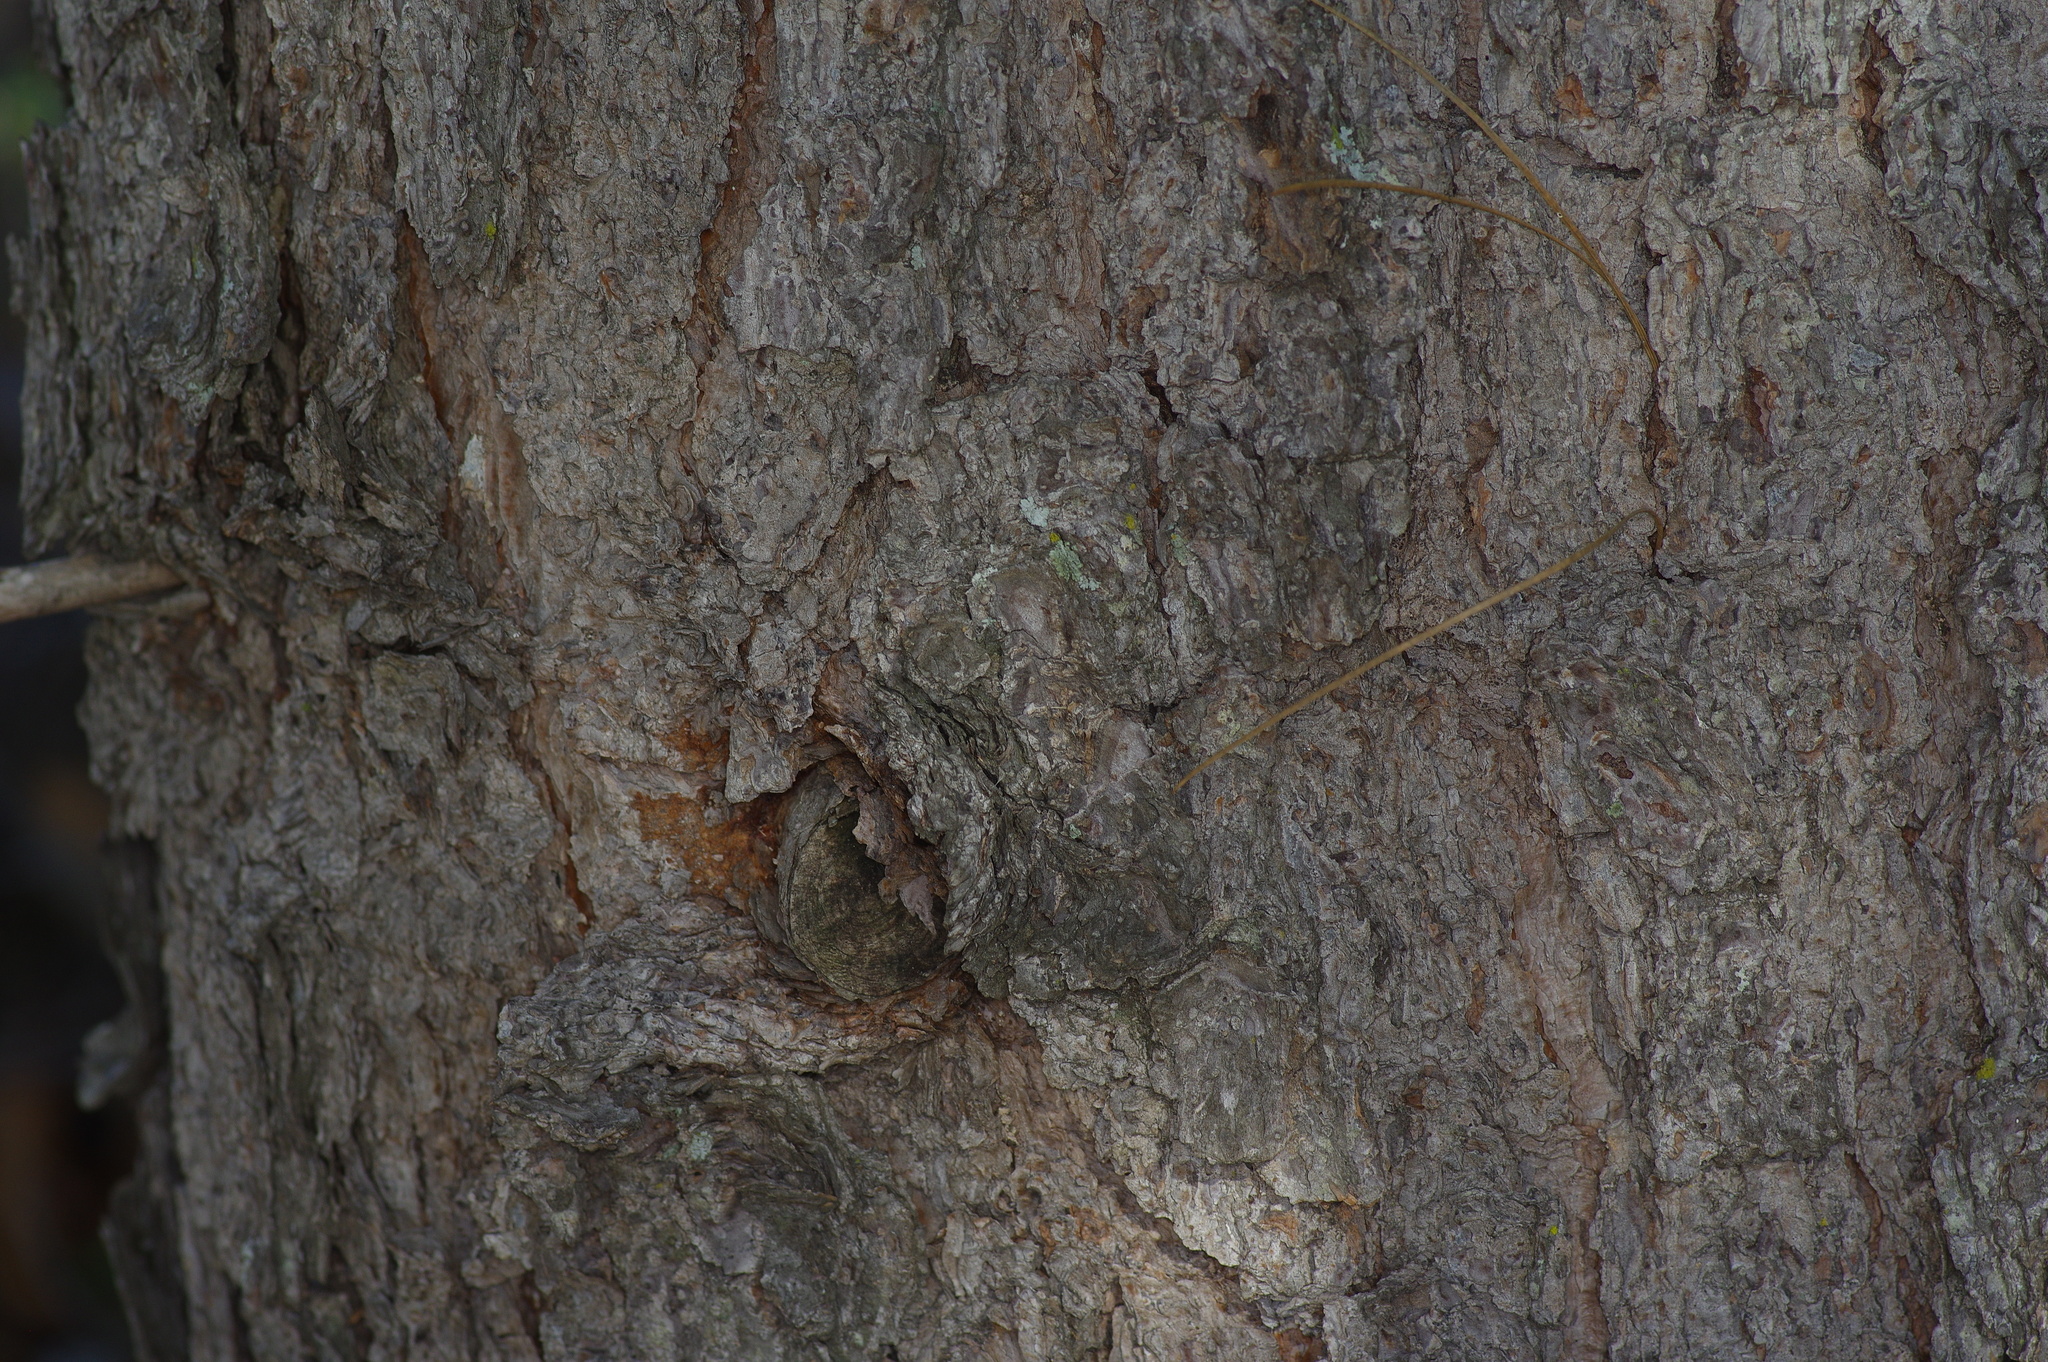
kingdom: Plantae
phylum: Tracheophyta
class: Pinopsida
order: Pinales
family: Pinaceae
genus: Pinus
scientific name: Pinus taeda
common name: Loblolly pine
